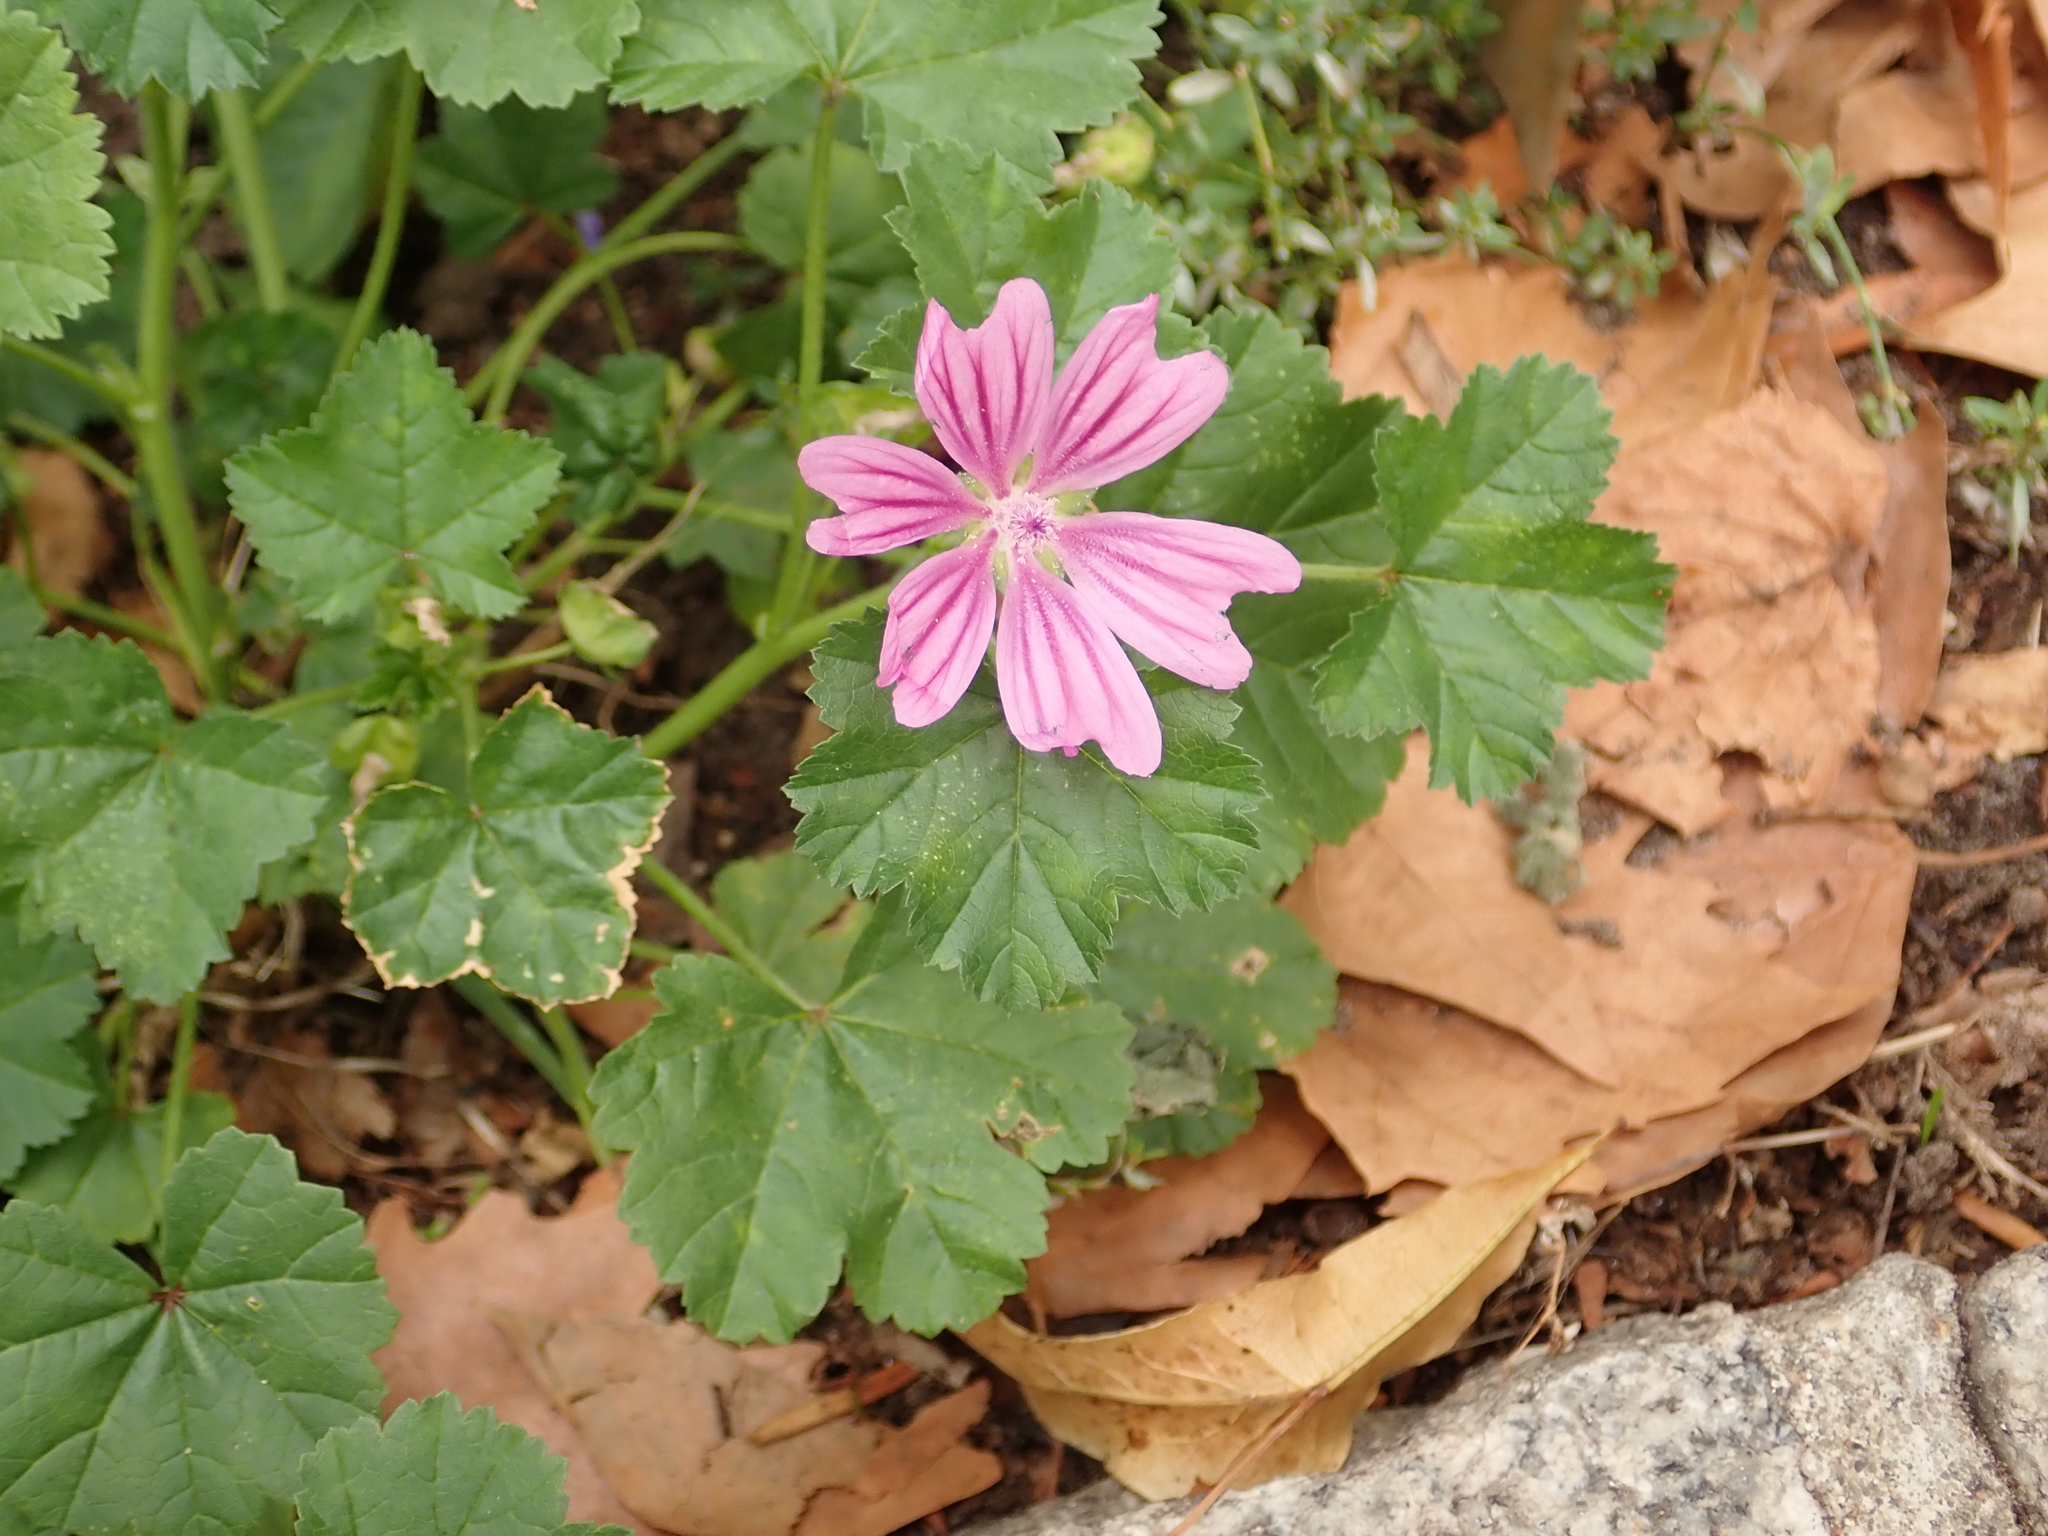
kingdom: Plantae
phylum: Tracheophyta
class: Magnoliopsida
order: Malvales
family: Malvaceae
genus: Malva
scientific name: Malva sylvestris
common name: Common mallow
